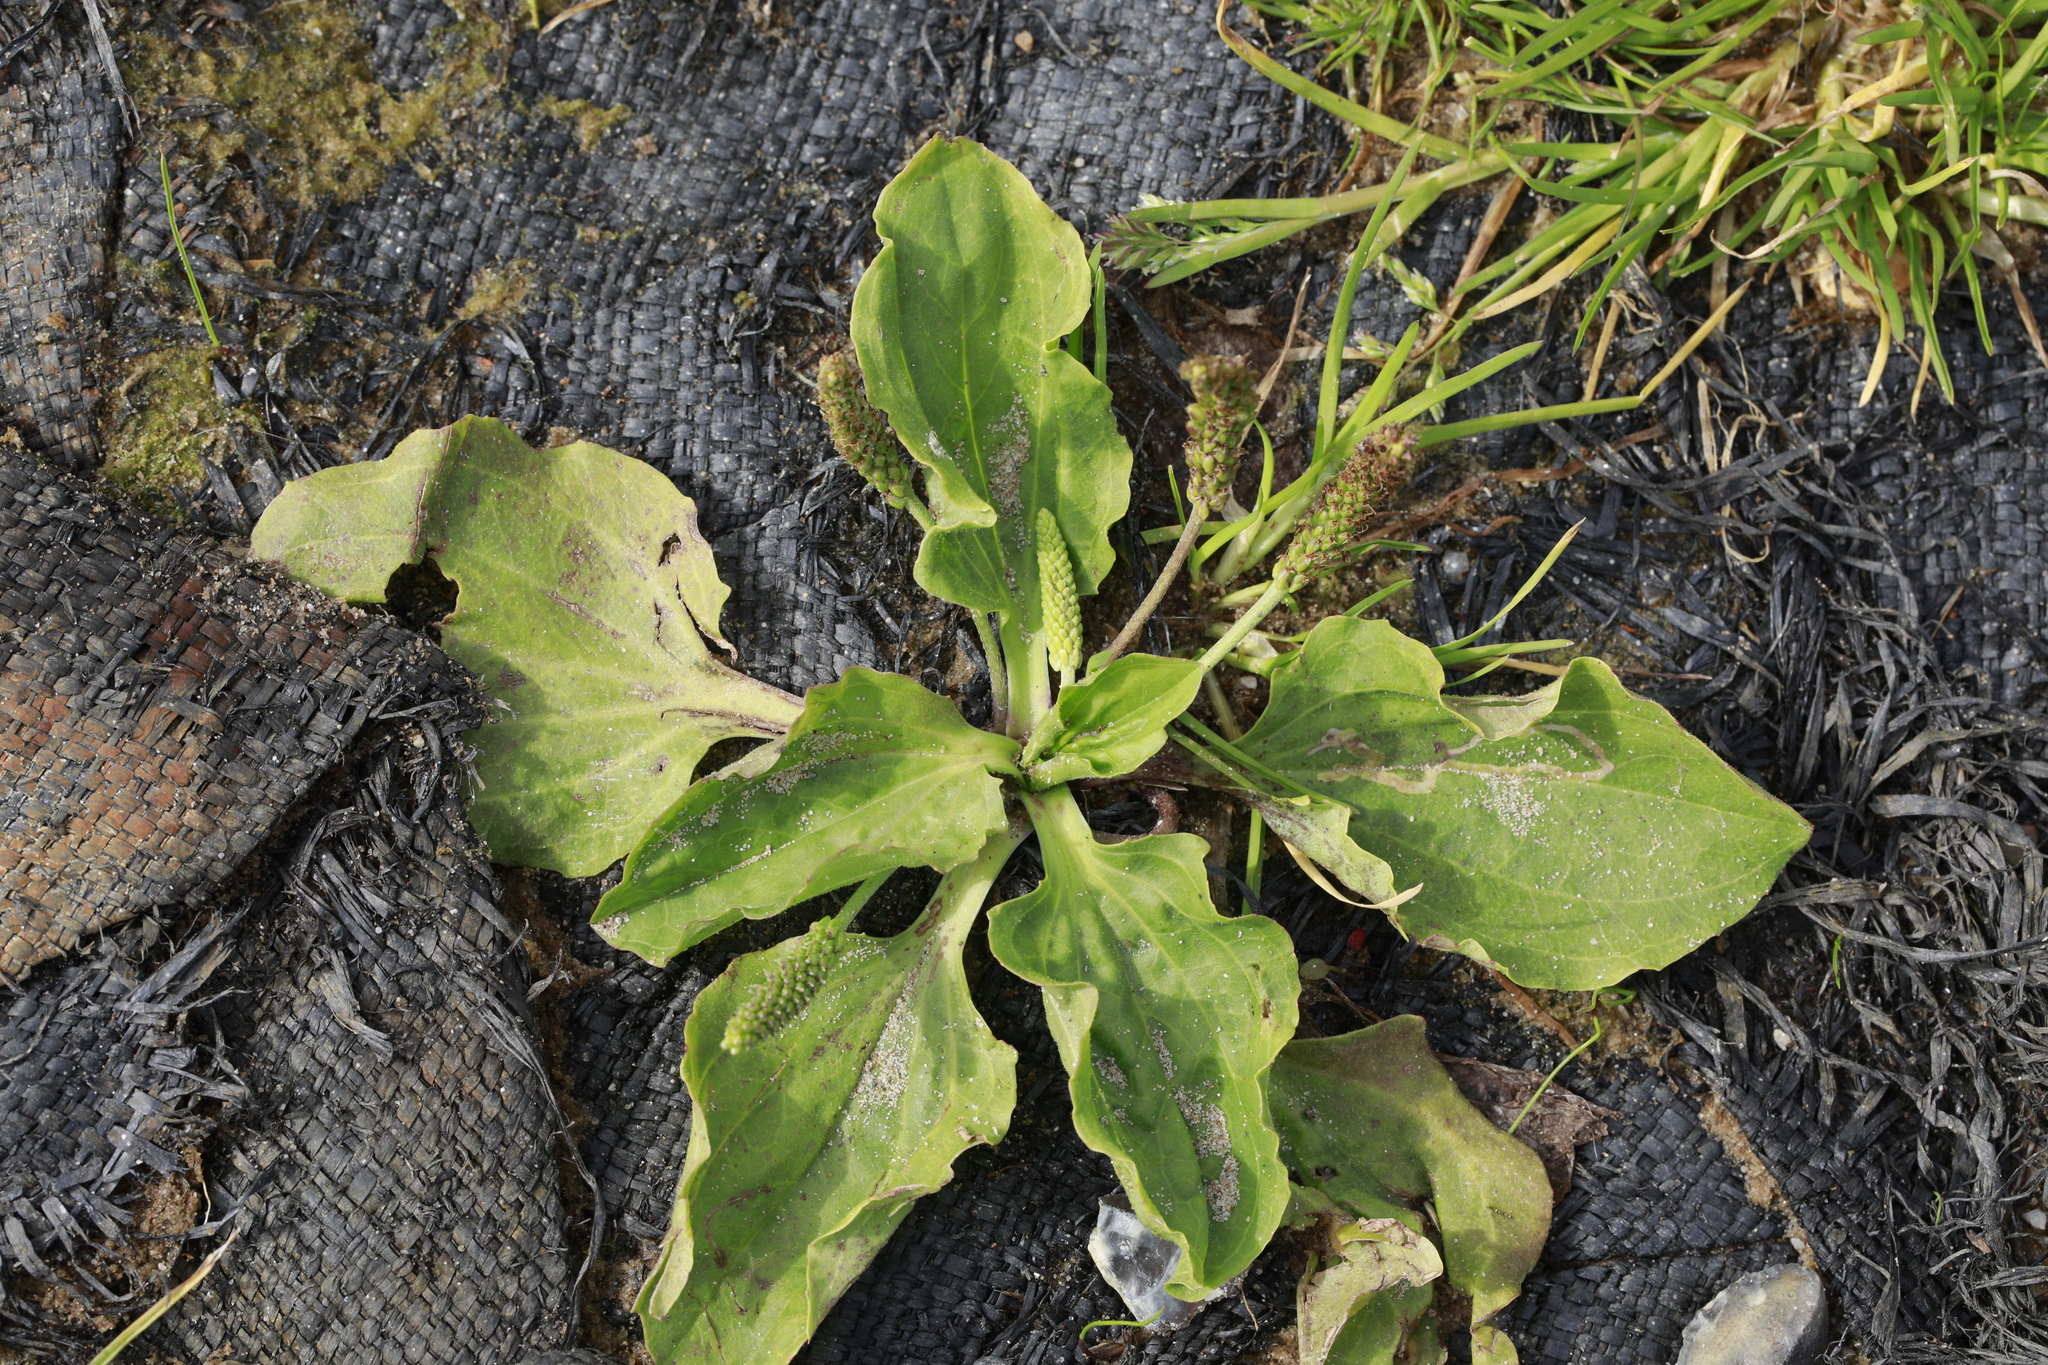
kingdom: Plantae
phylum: Tracheophyta
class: Magnoliopsida
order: Lamiales
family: Plantaginaceae
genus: Plantago
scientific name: Plantago major
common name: Common plantain
